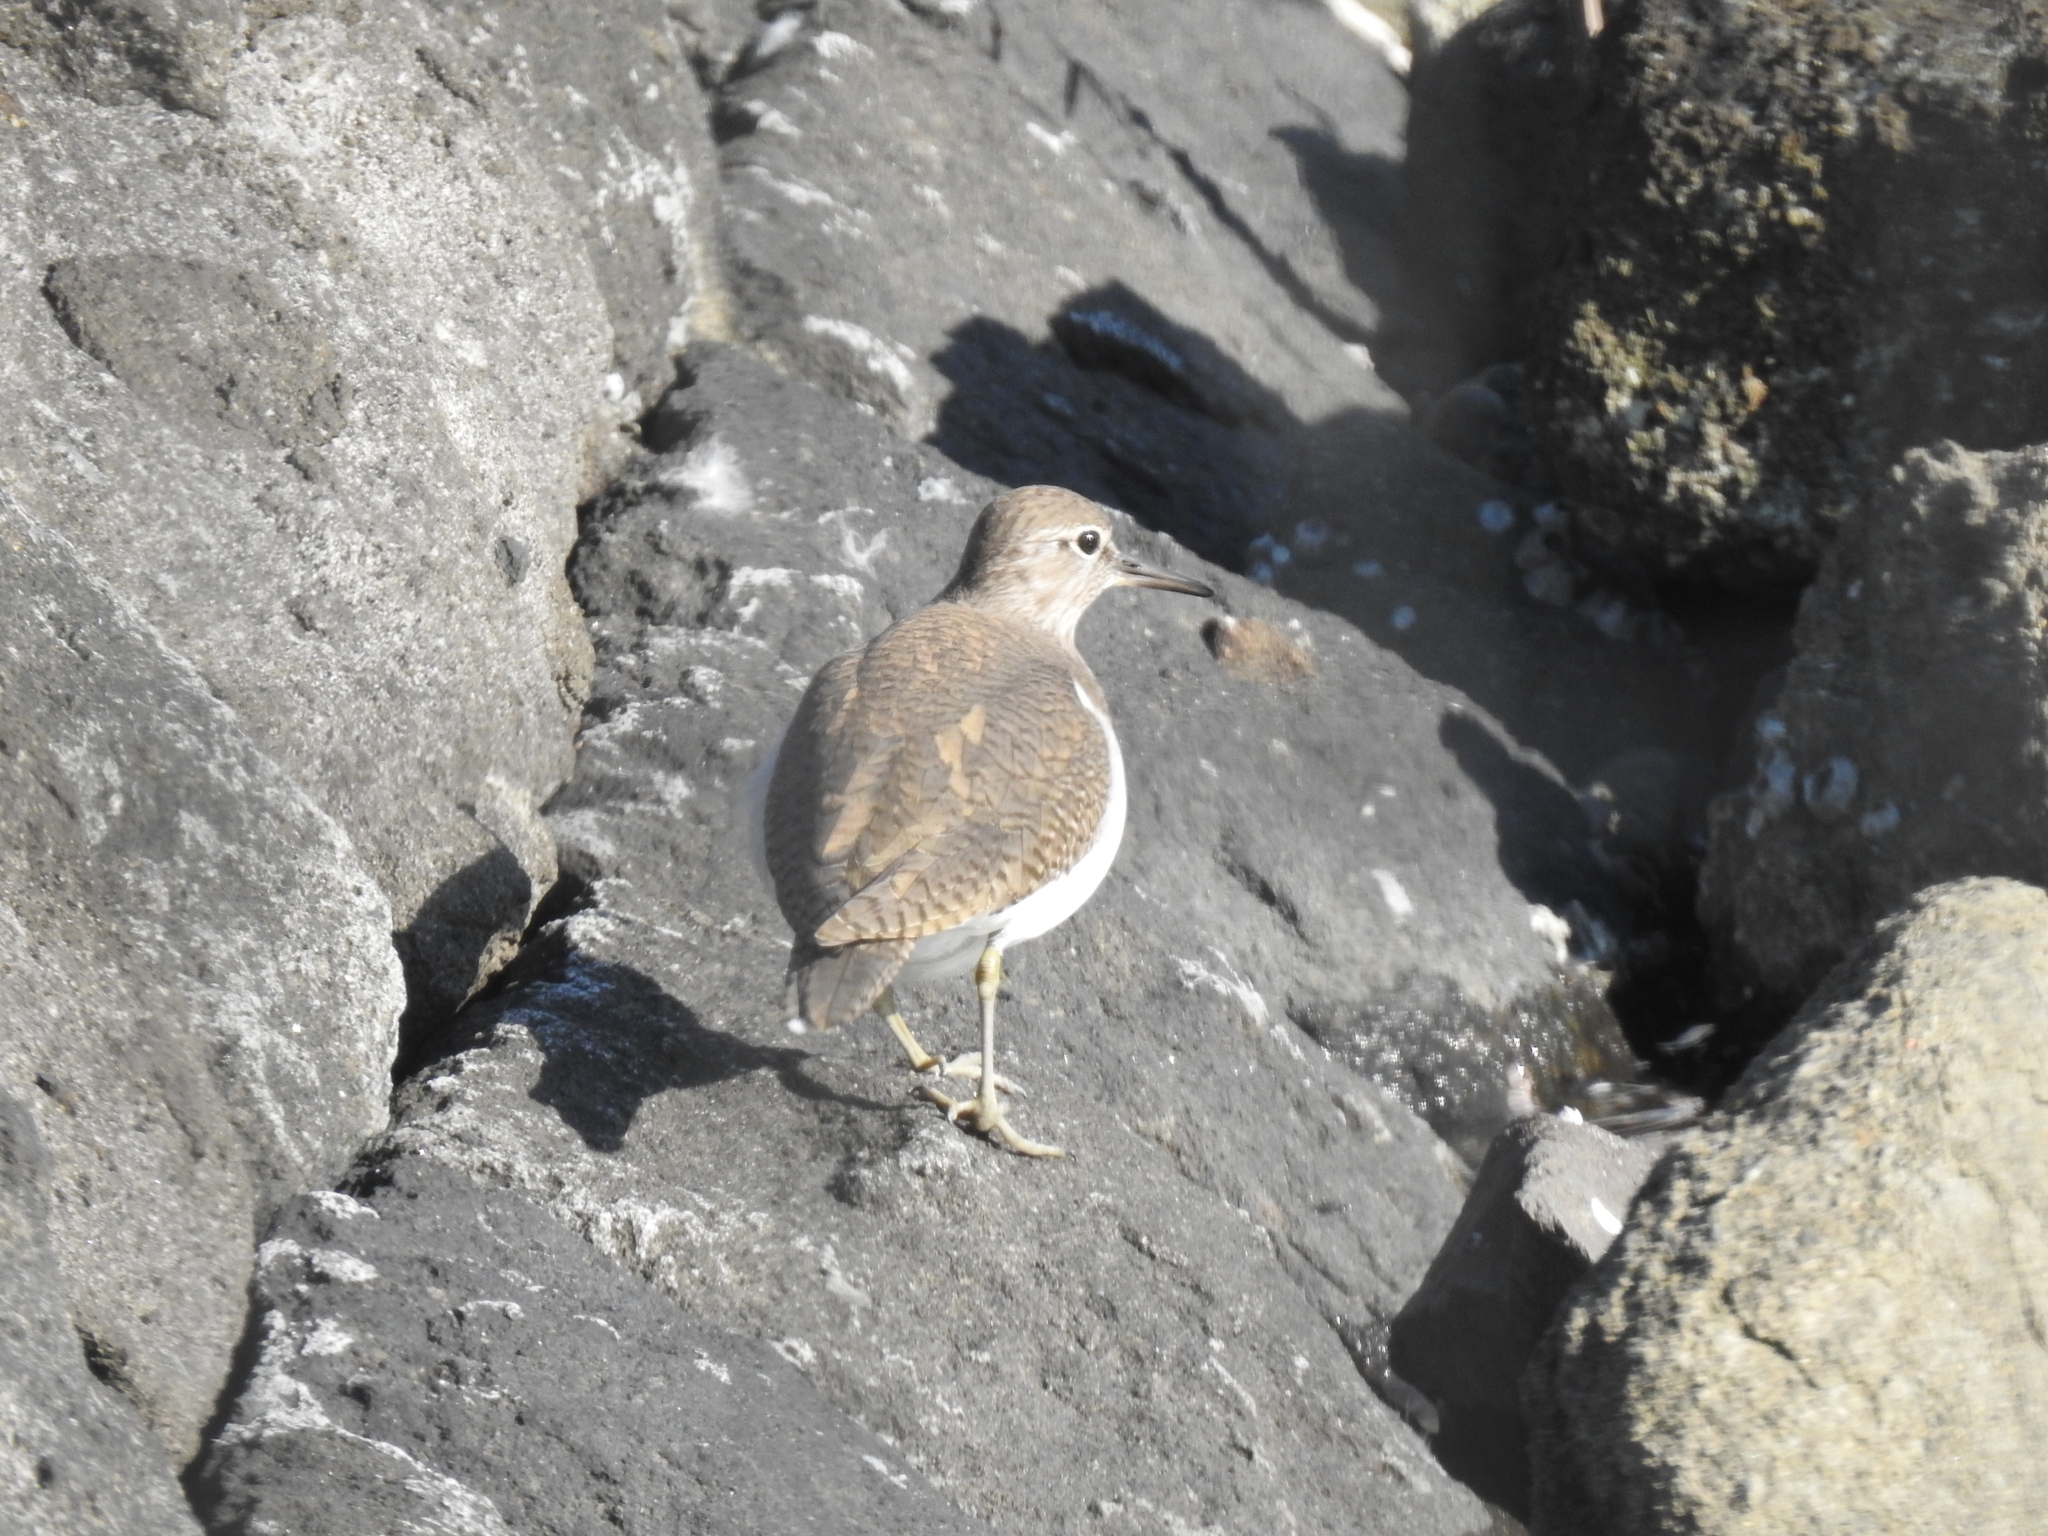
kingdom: Animalia
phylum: Chordata
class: Aves
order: Charadriiformes
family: Scolopacidae
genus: Actitis
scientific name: Actitis hypoleucos
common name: Common sandpiper
